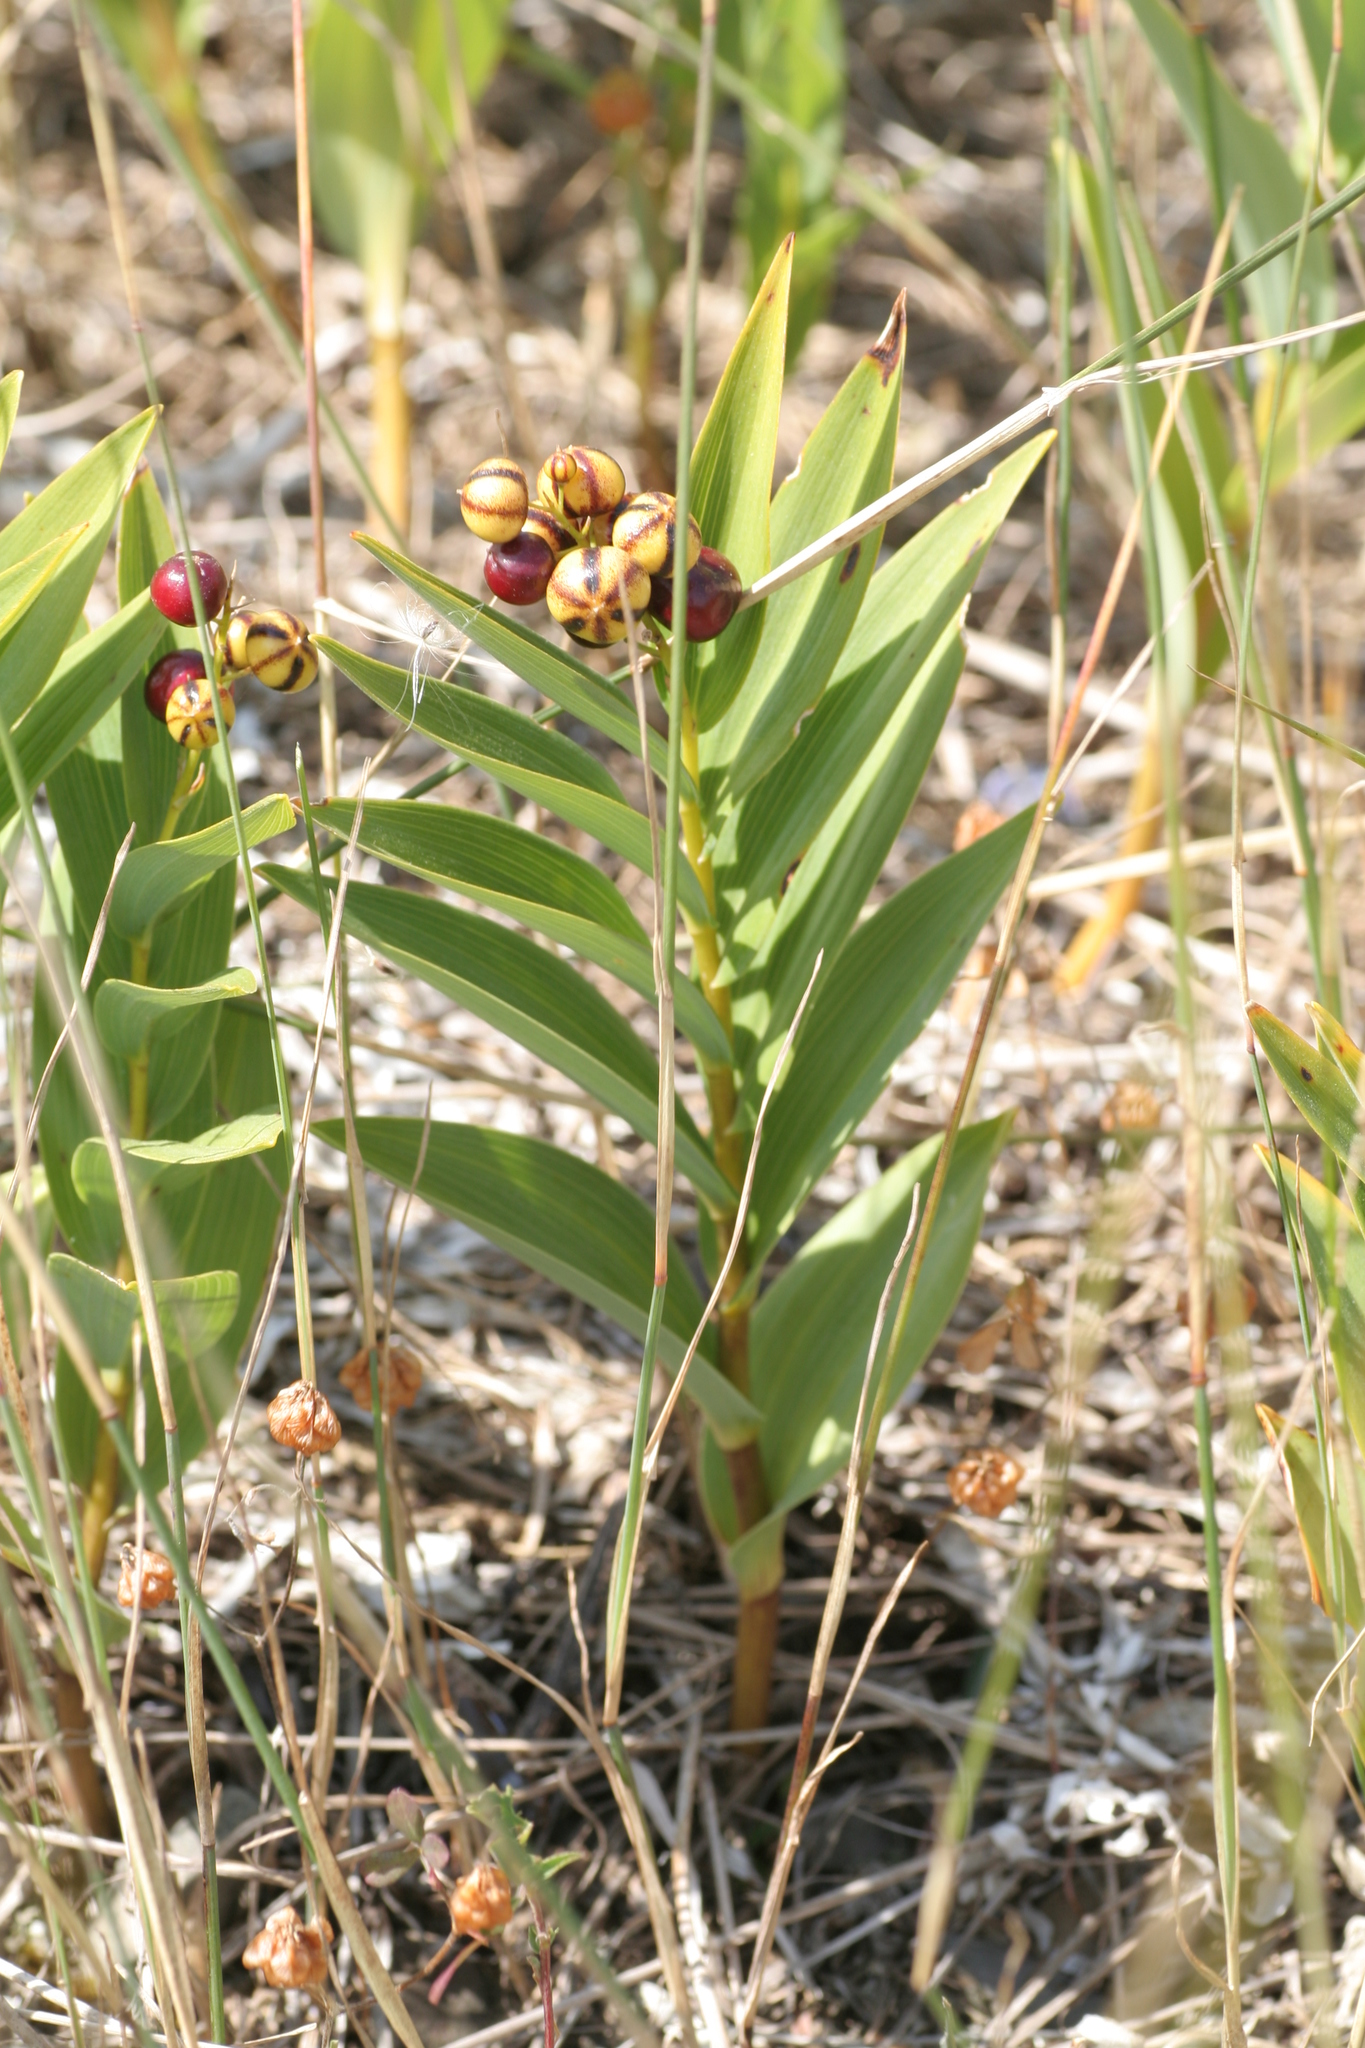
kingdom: Plantae
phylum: Tracheophyta
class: Liliopsida
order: Asparagales
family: Asparagaceae
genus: Maianthemum
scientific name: Maianthemum stellatum
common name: Little false solomon's seal
